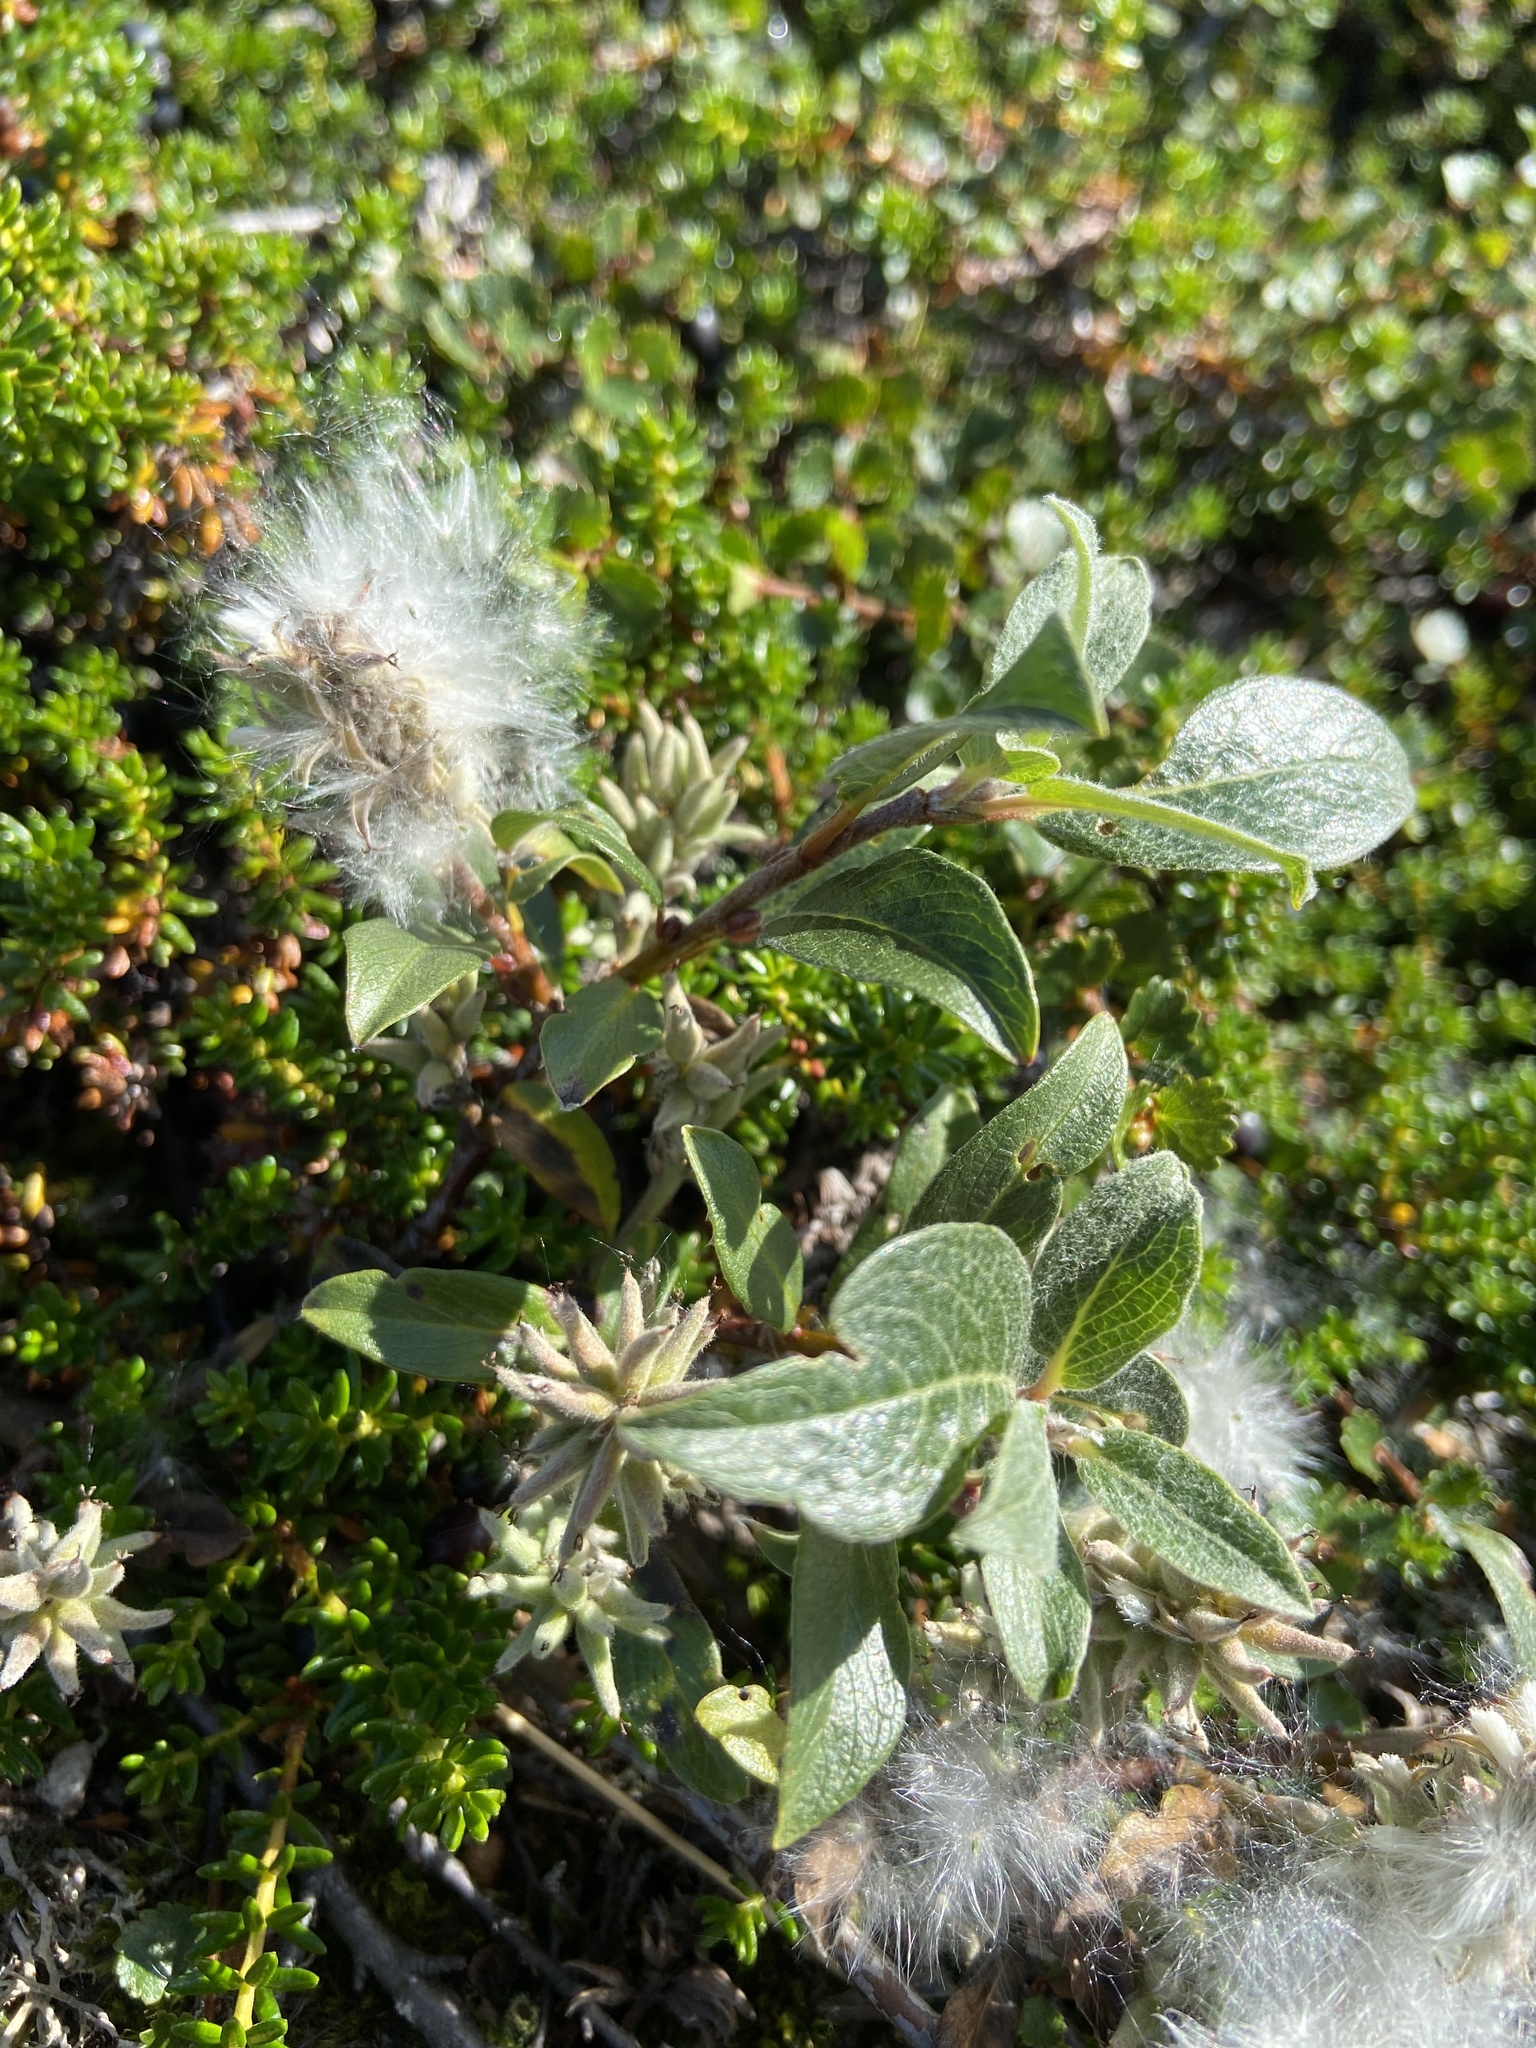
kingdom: Plantae
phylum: Tracheophyta
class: Magnoliopsida
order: Malpighiales
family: Salicaceae
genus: Salix
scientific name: Salix glauca
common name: Glaucous willow
